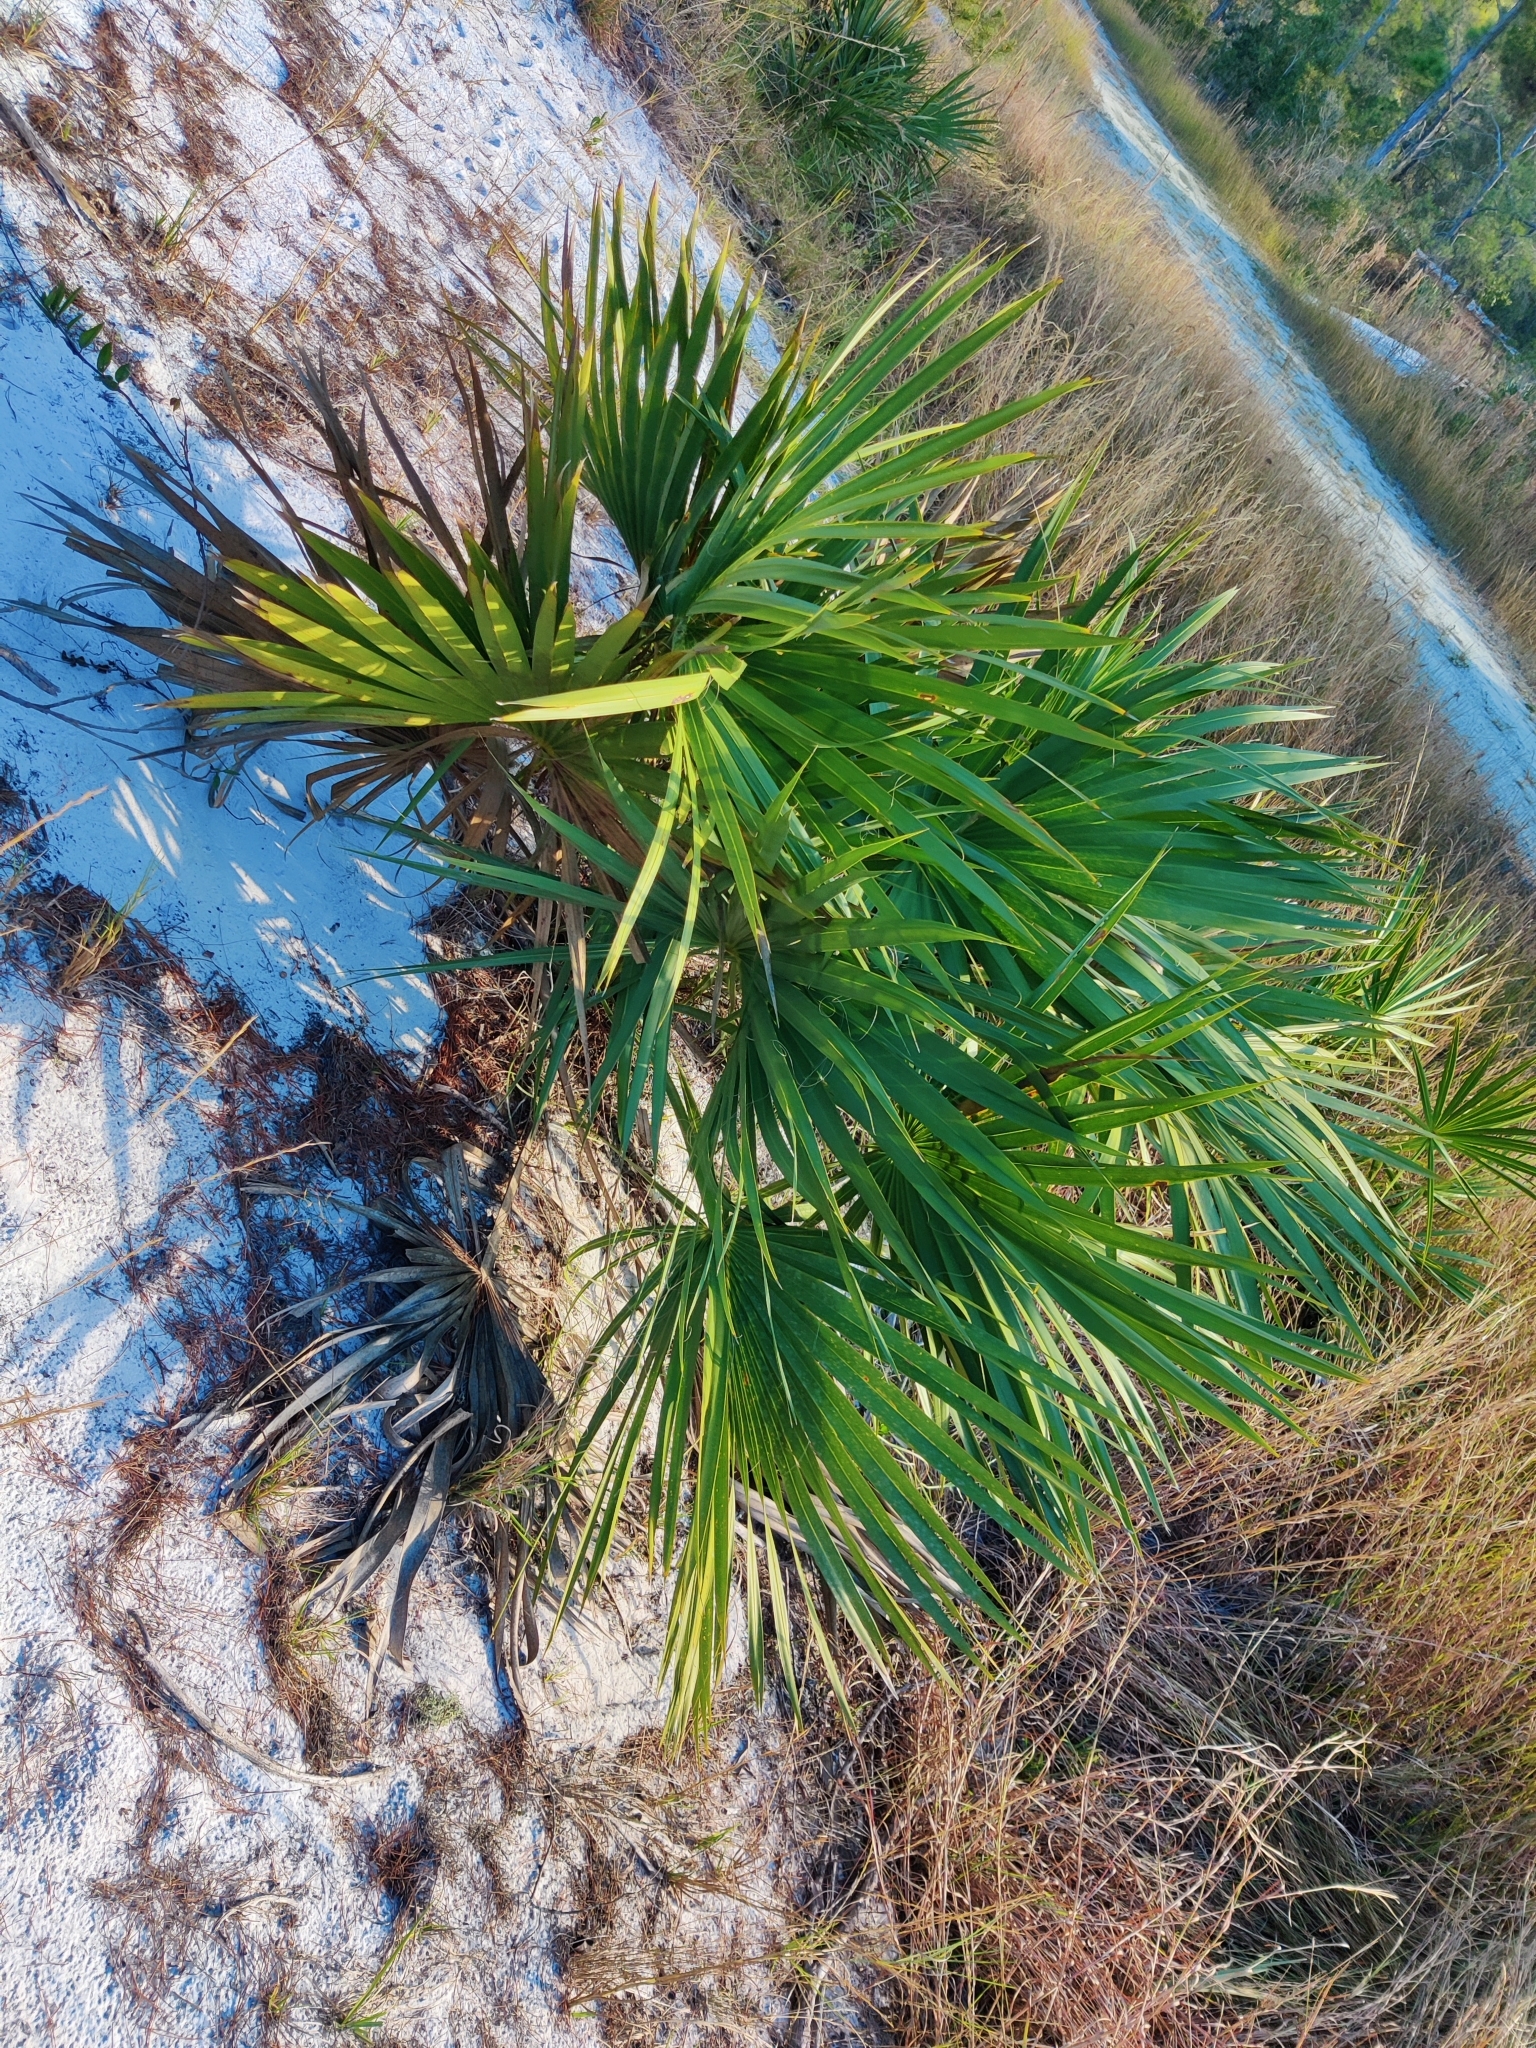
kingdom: Plantae
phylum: Tracheophyta
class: Liliopsida
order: Arecales
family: Arecaceae
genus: Sabal
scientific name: Sabal etonia
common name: Dwarf palmetto
